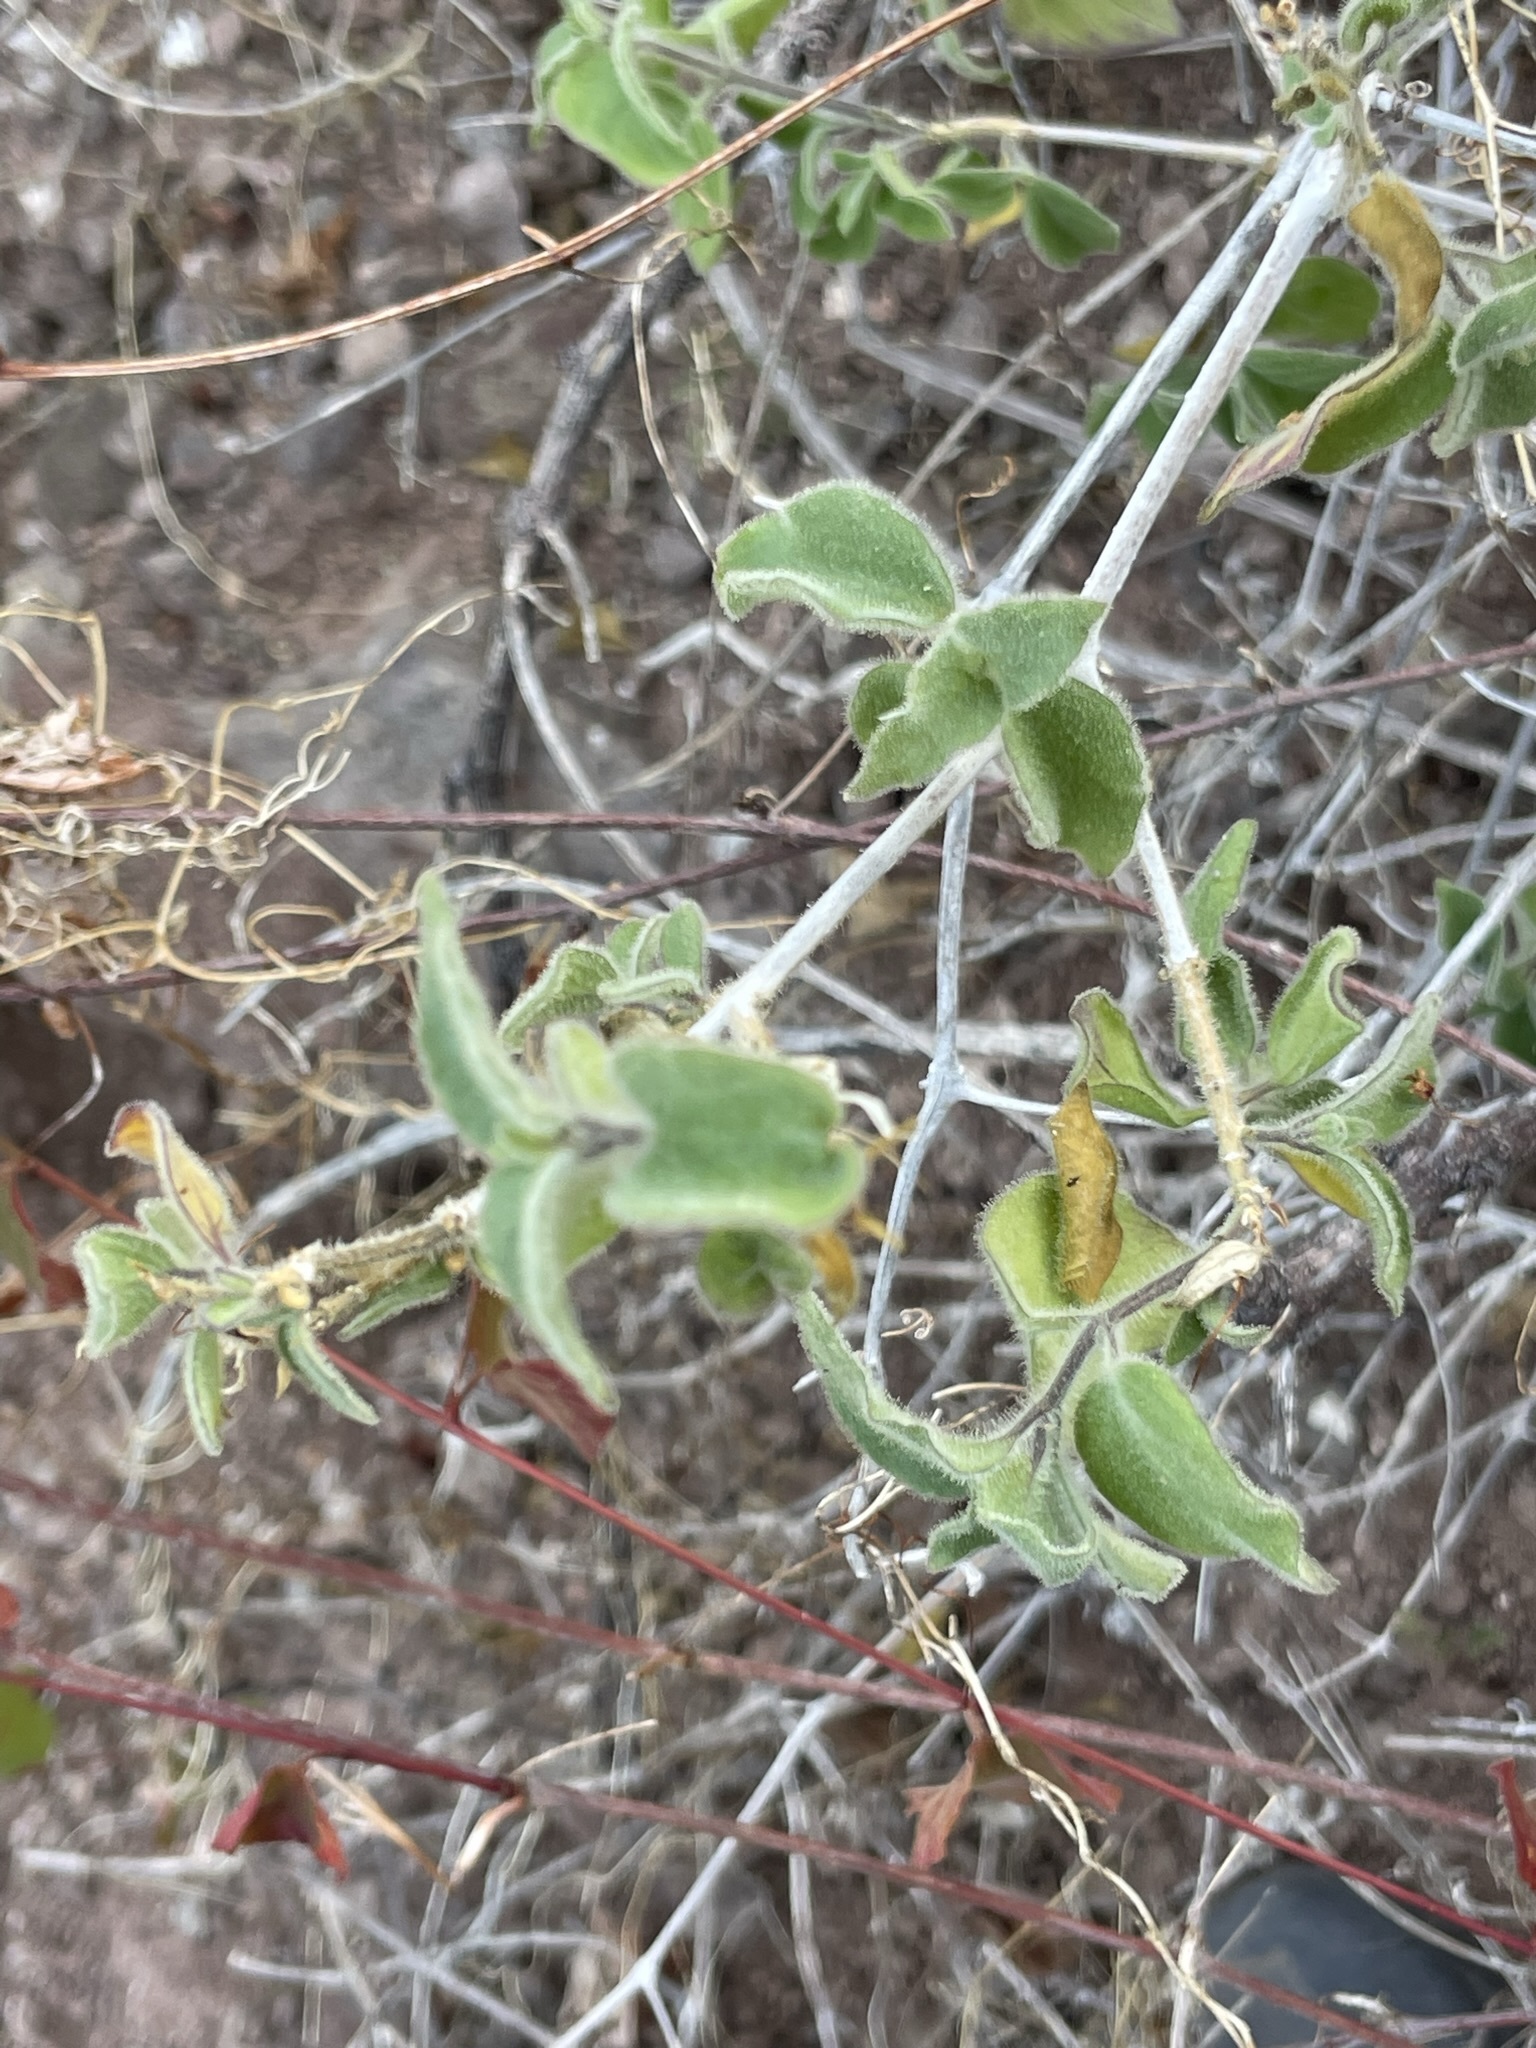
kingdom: Plantae
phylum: Tracheophyta
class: Magnoliopsida
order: Lamiales
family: Acanthaceae
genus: Ruellia
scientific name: Ruellia californica
